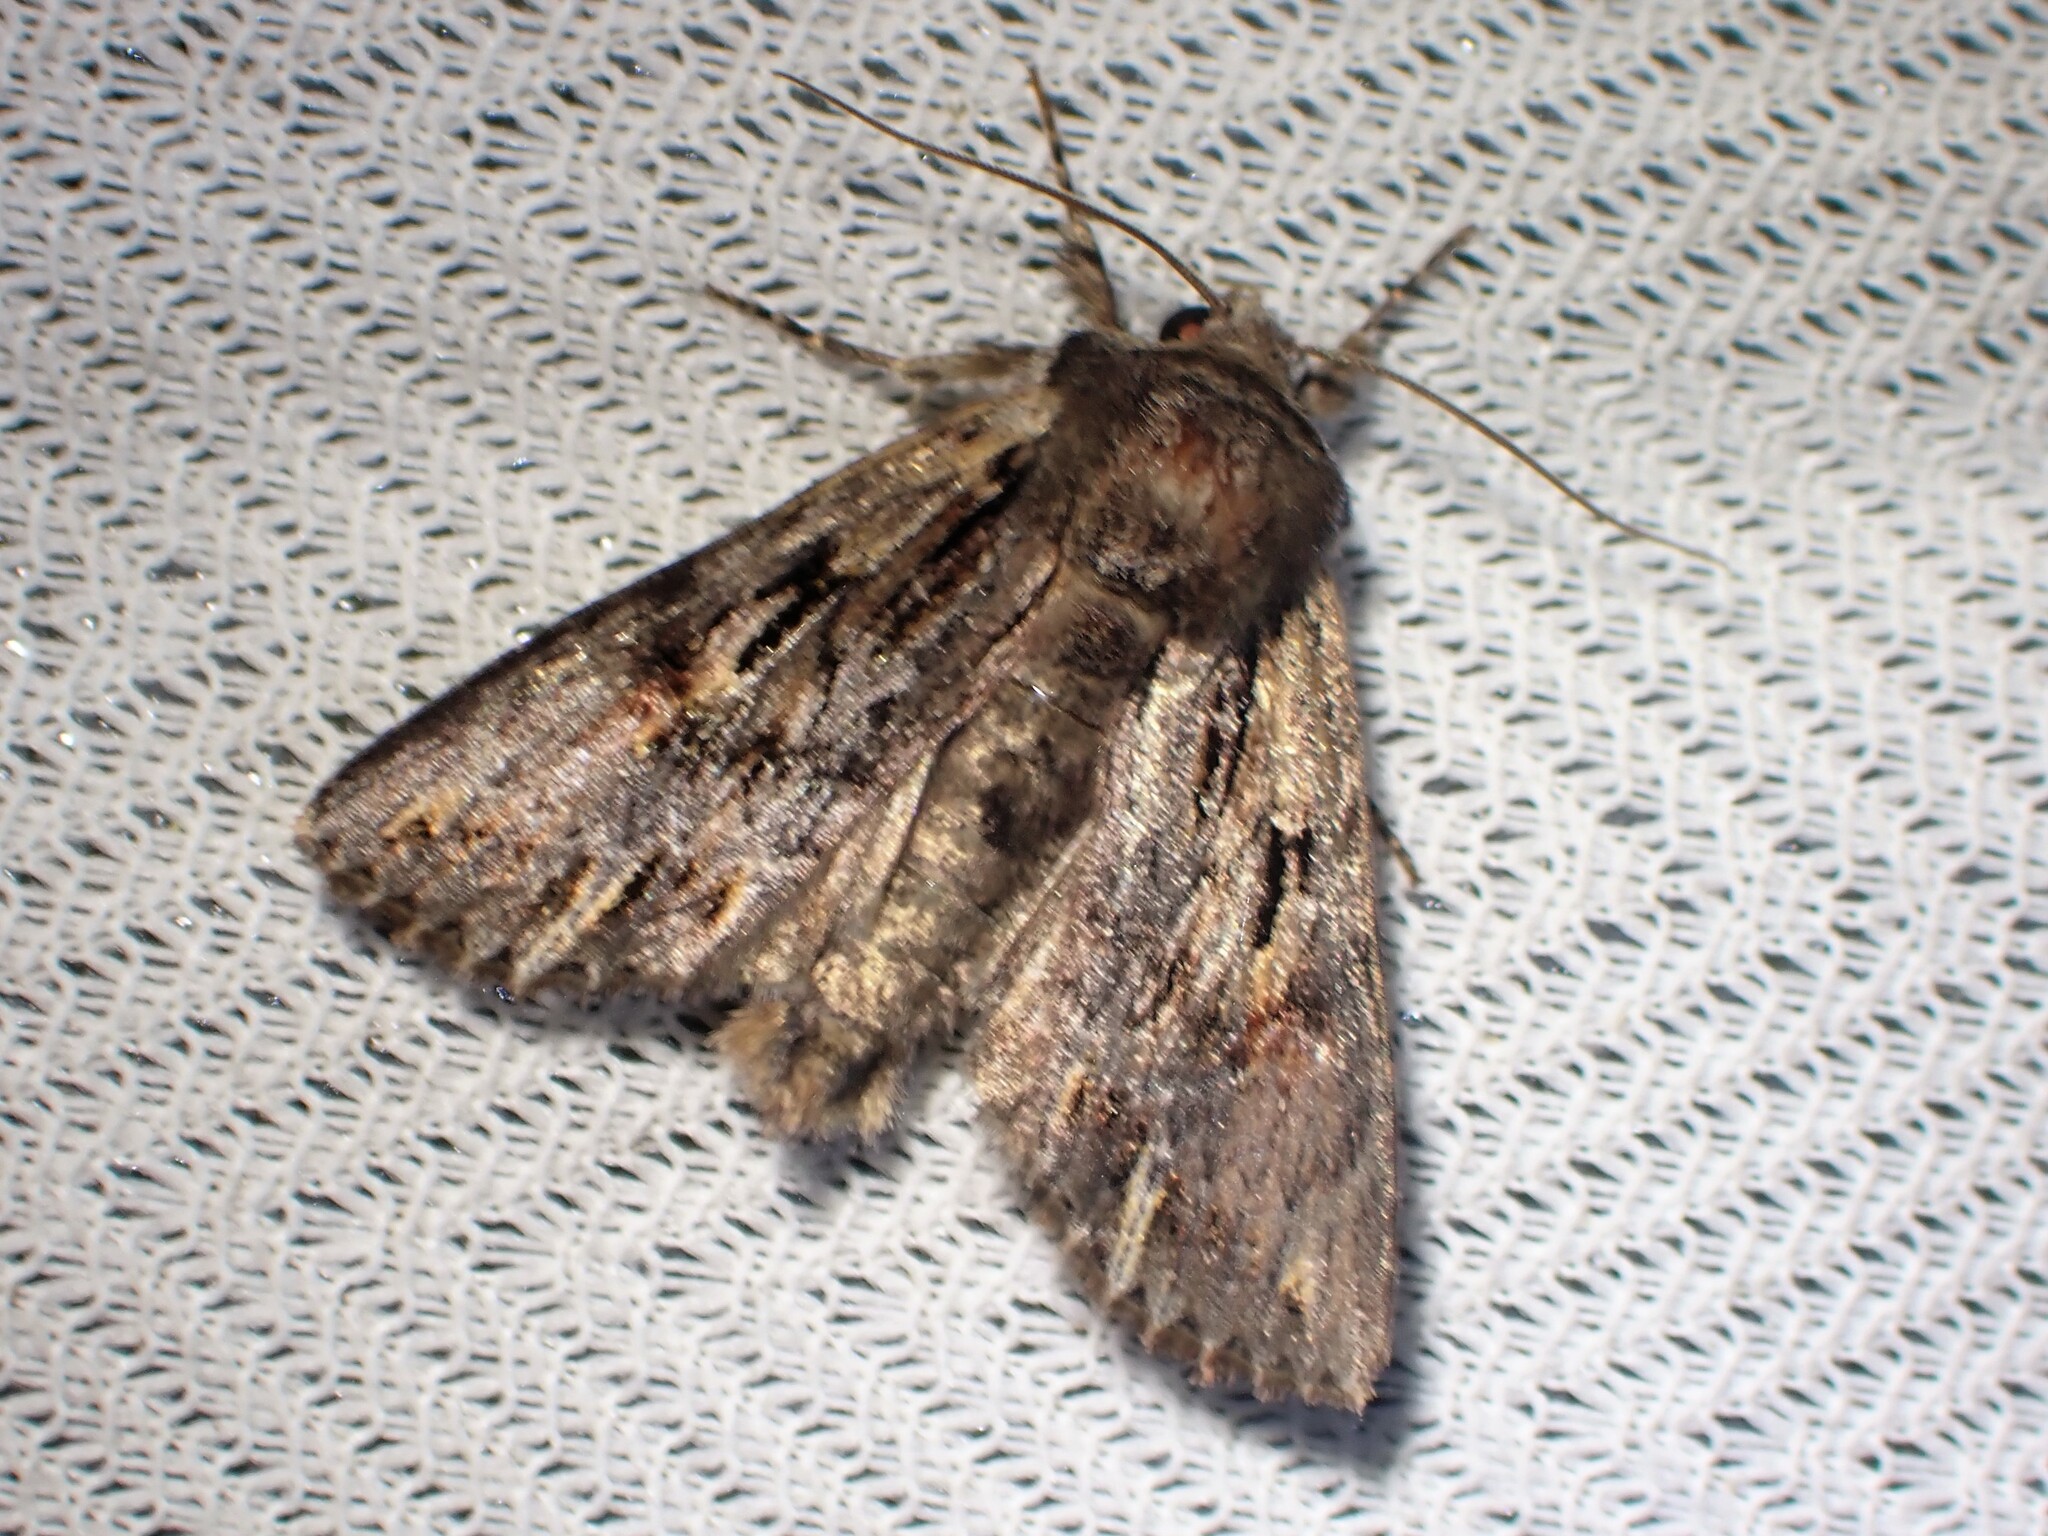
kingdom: Animalia
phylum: Arthropoda
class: Insecta
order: Lepidoptera
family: Noctuidae
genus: Achatia
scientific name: Achatia evicta
